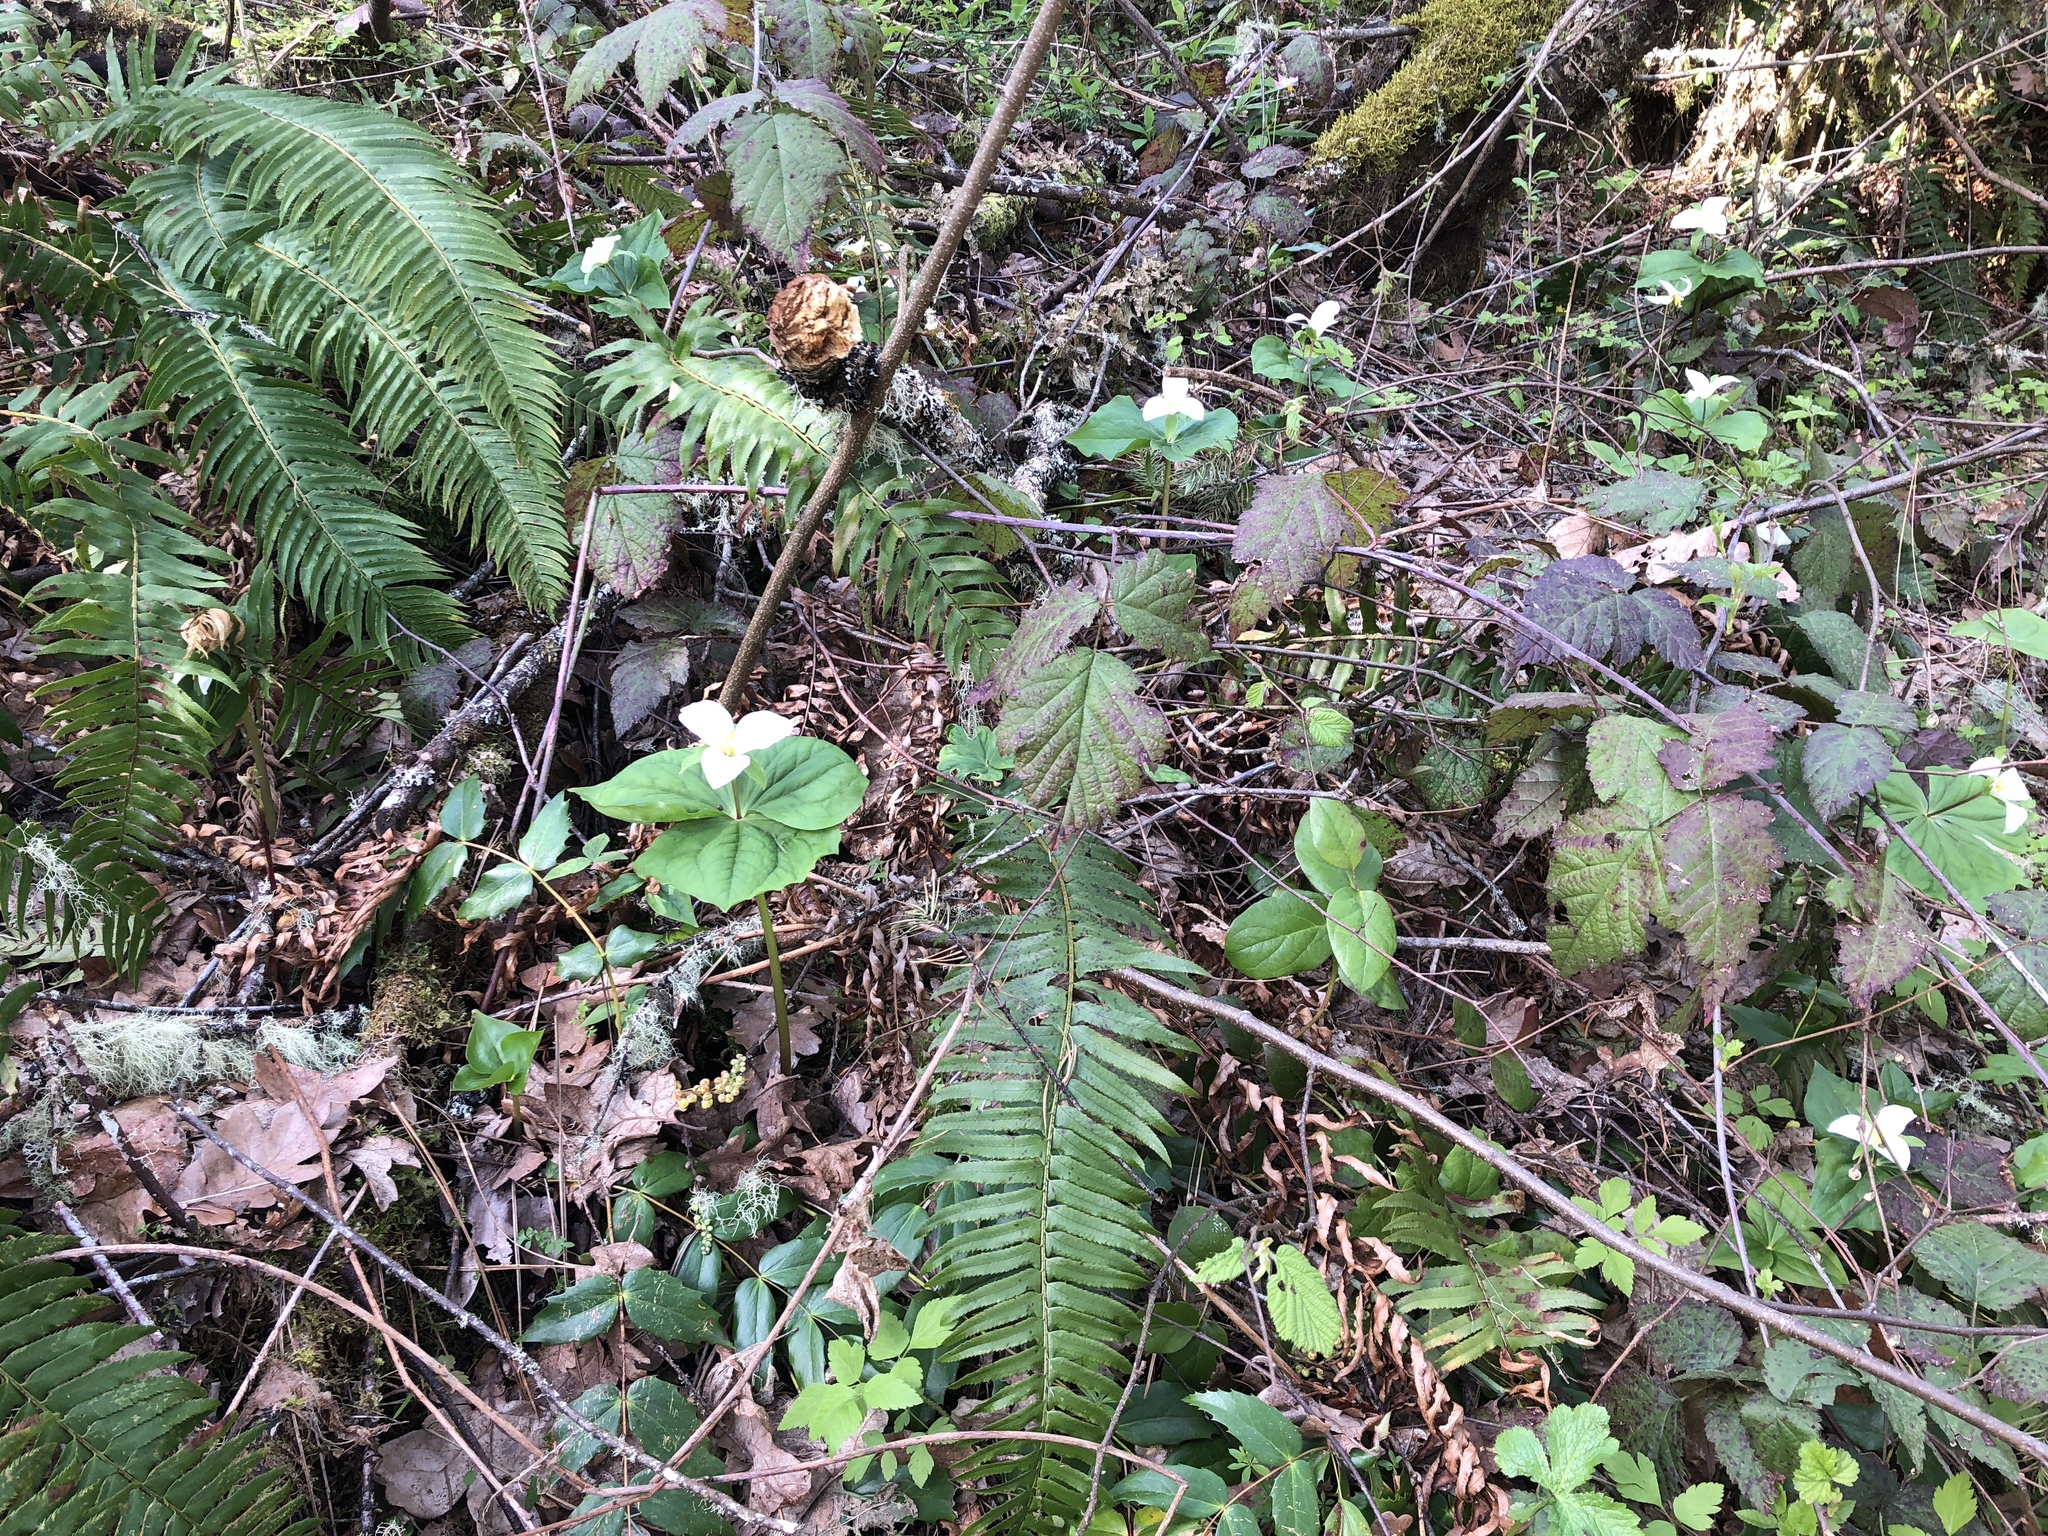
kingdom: Plantae
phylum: Tracheophyta
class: Liliopsida
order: Liliales
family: Melanthiaceae
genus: Trillium
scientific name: Trillium ovatum
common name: Pacific trillium
